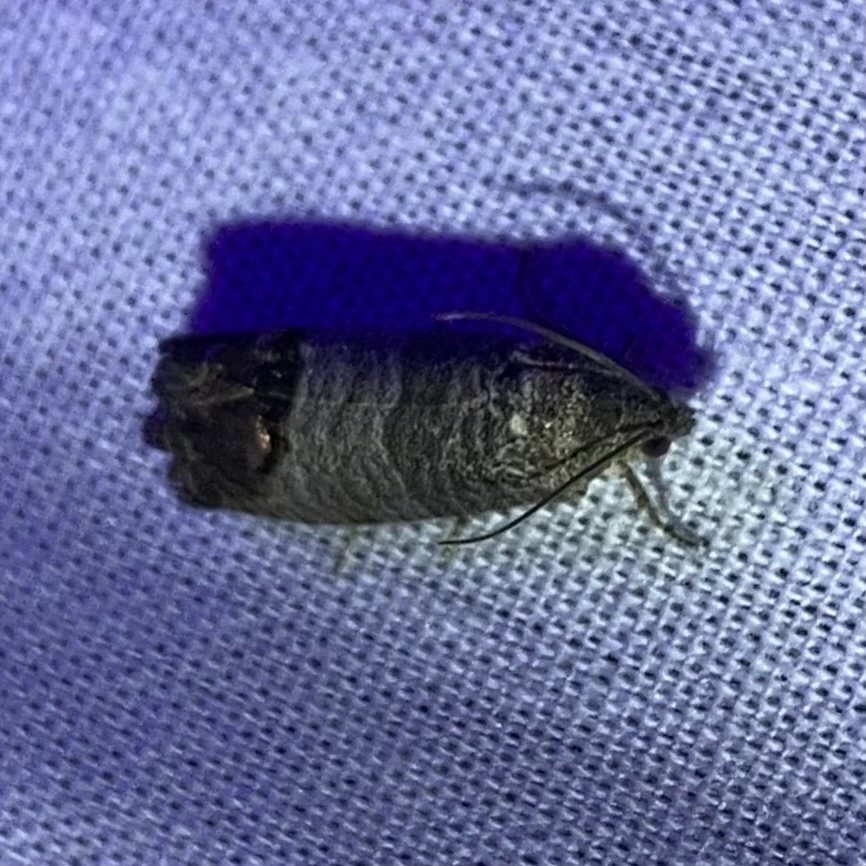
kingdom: Animalia
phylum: Arthropoda
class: Insecta
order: Lepidoptera
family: Tortricidae
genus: Cydia
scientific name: Cydia pomonella
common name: Codling moth
